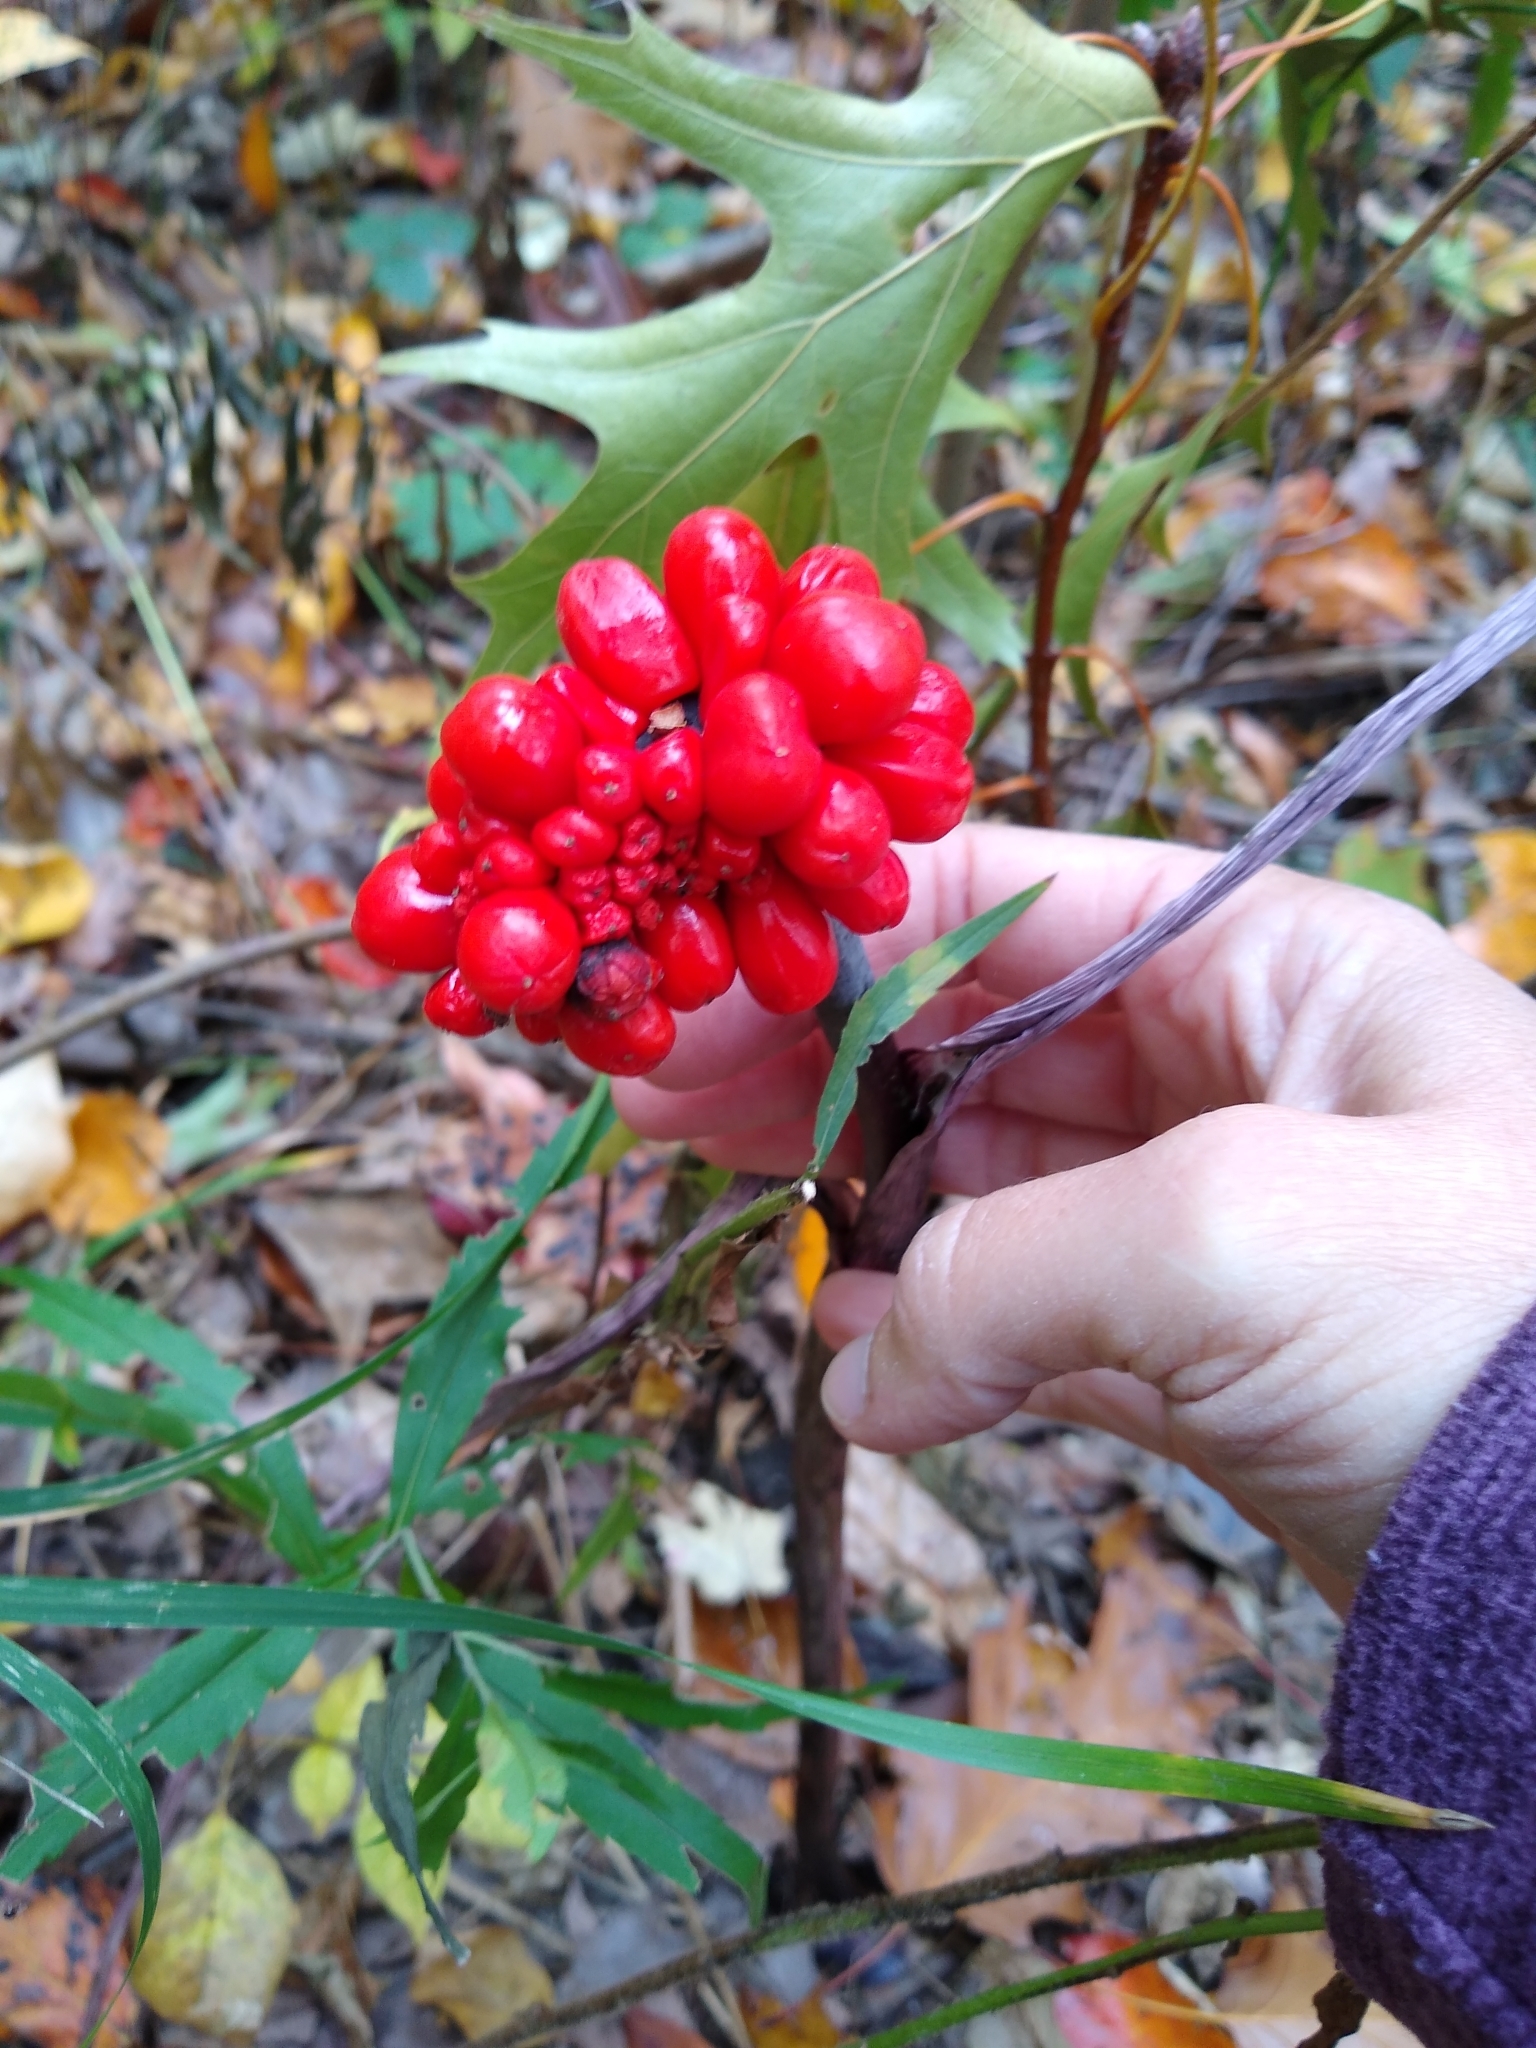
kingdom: Plantae
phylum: Tracheophyta
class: Liliopsida
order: Alismatales
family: Araceae
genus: Arisaema
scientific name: Arisaema triphyllum
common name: Jack-in-the-pulpit
